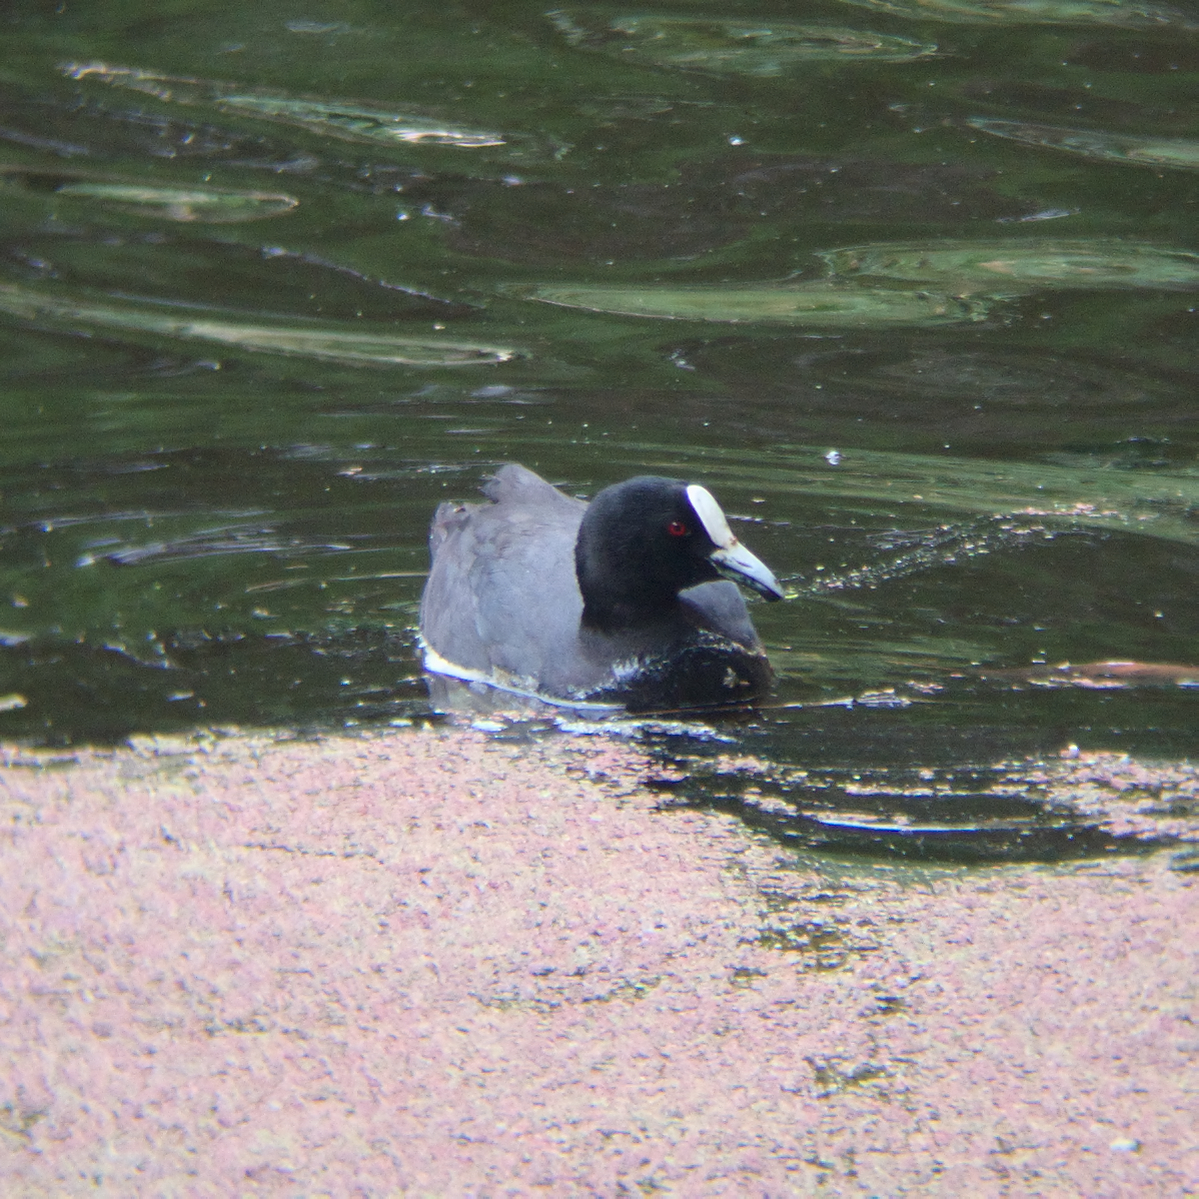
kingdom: Animalia
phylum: Chordata
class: Aves
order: Gruiformes
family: Rallidae
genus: Fulica
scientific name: Fulica atra
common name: Eurasian coot
